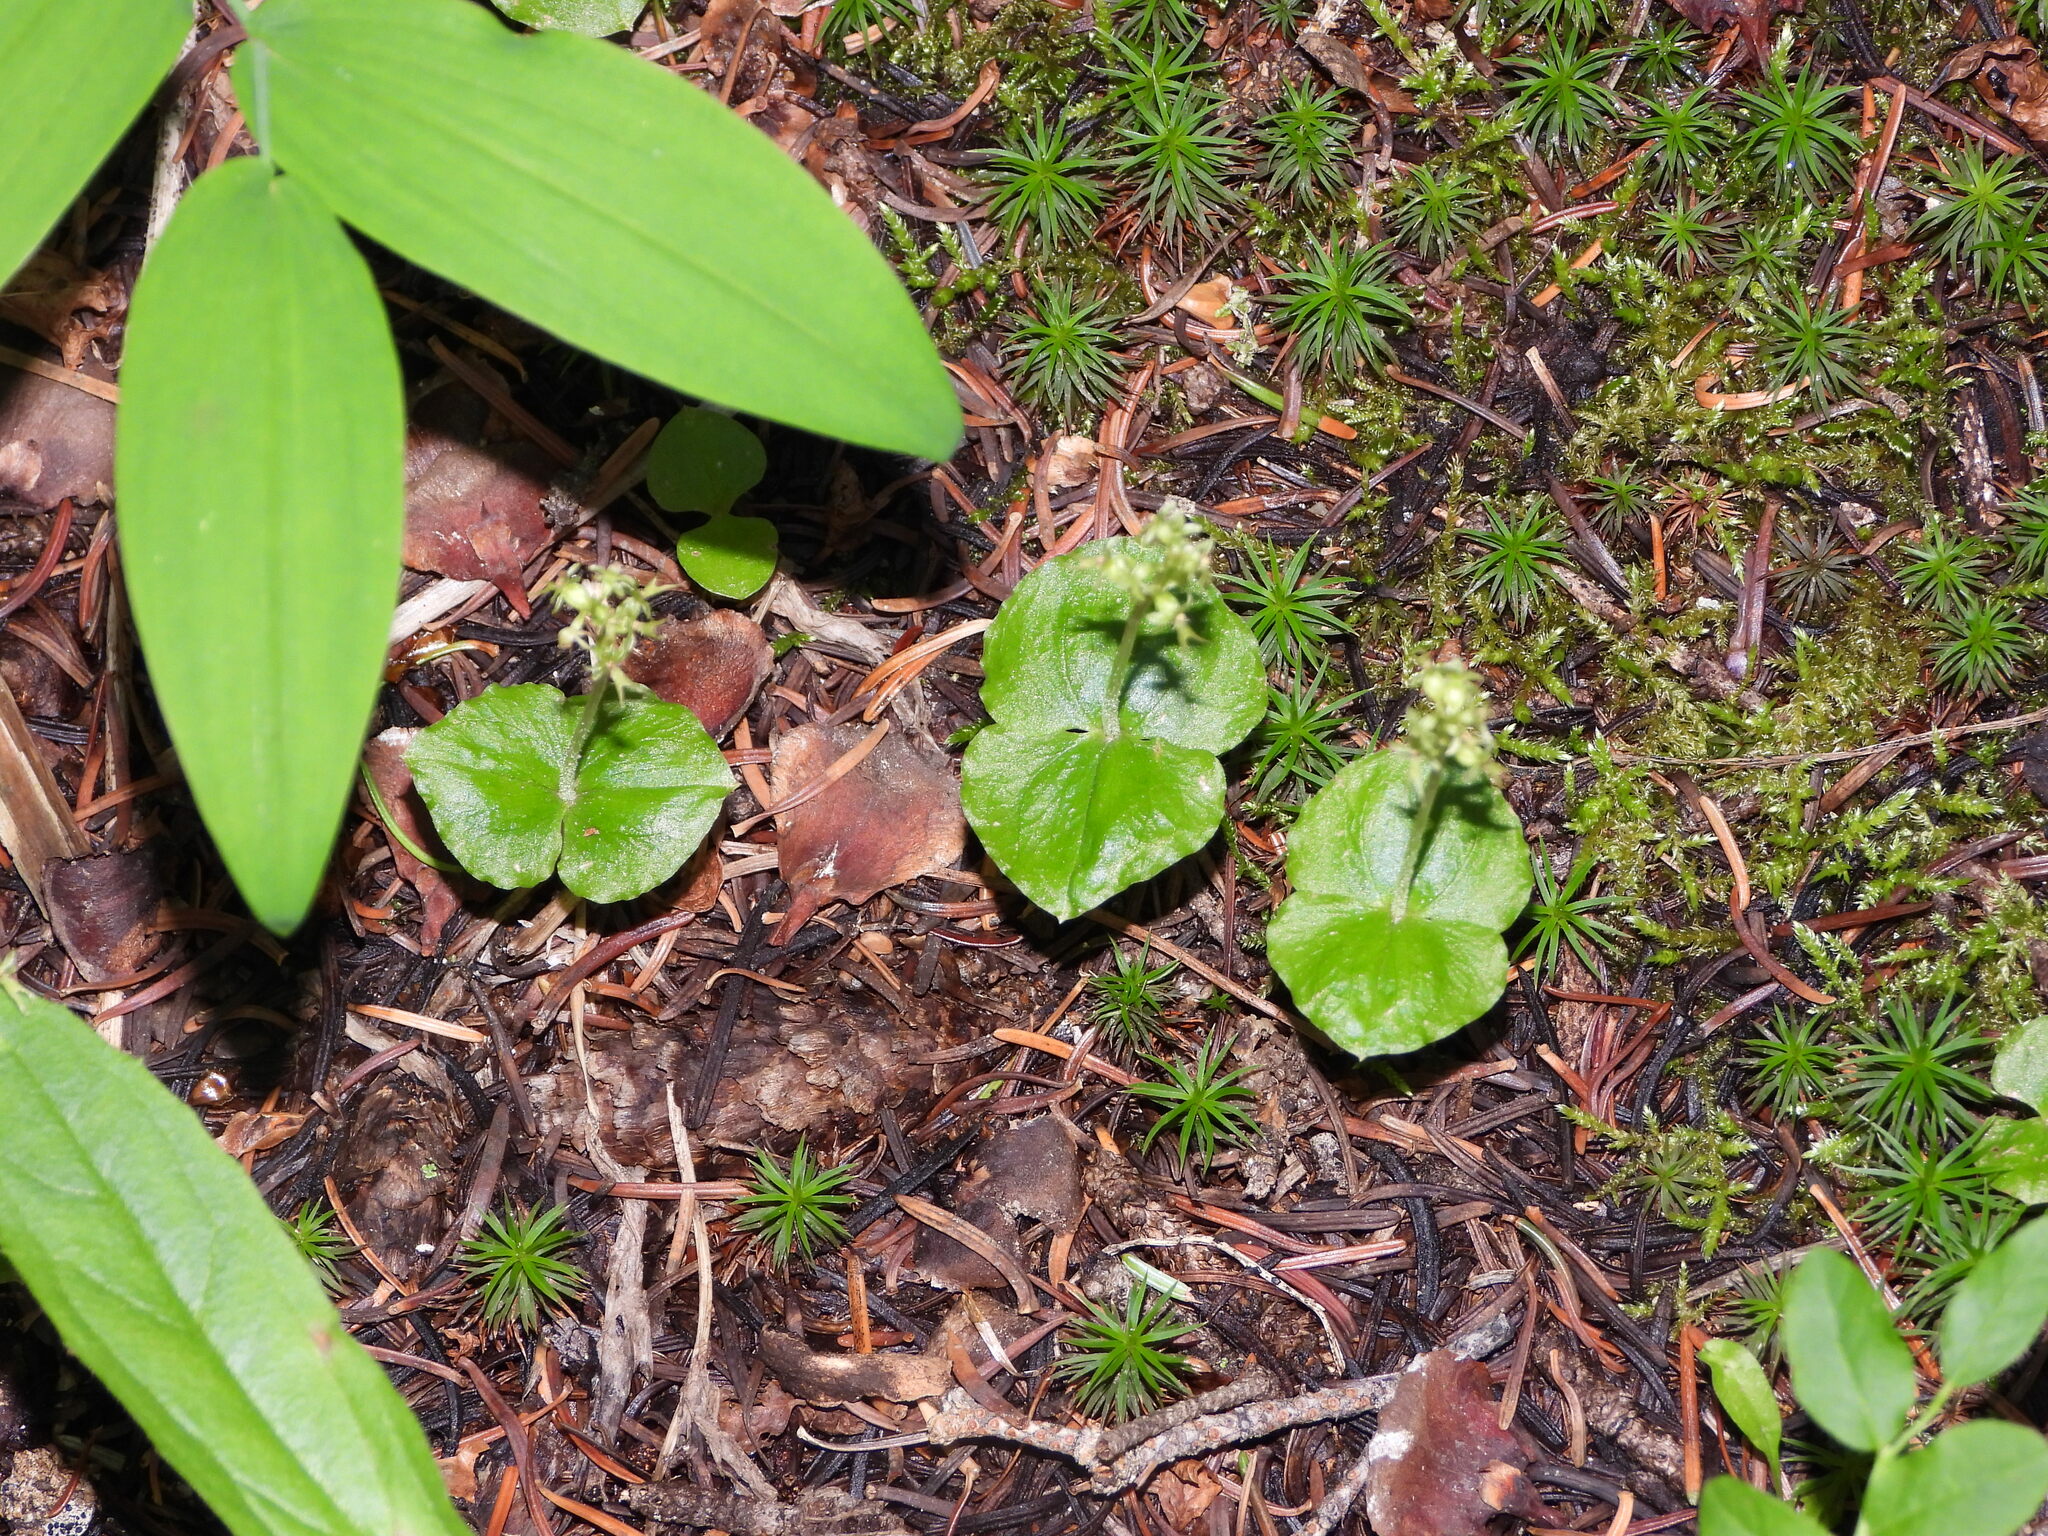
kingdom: Plantae
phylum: Tracheophyta
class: Liliopsida
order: Asparagales
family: Orchidaceae
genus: Neottia
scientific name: Neottia cordata
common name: Lesser twayblade
